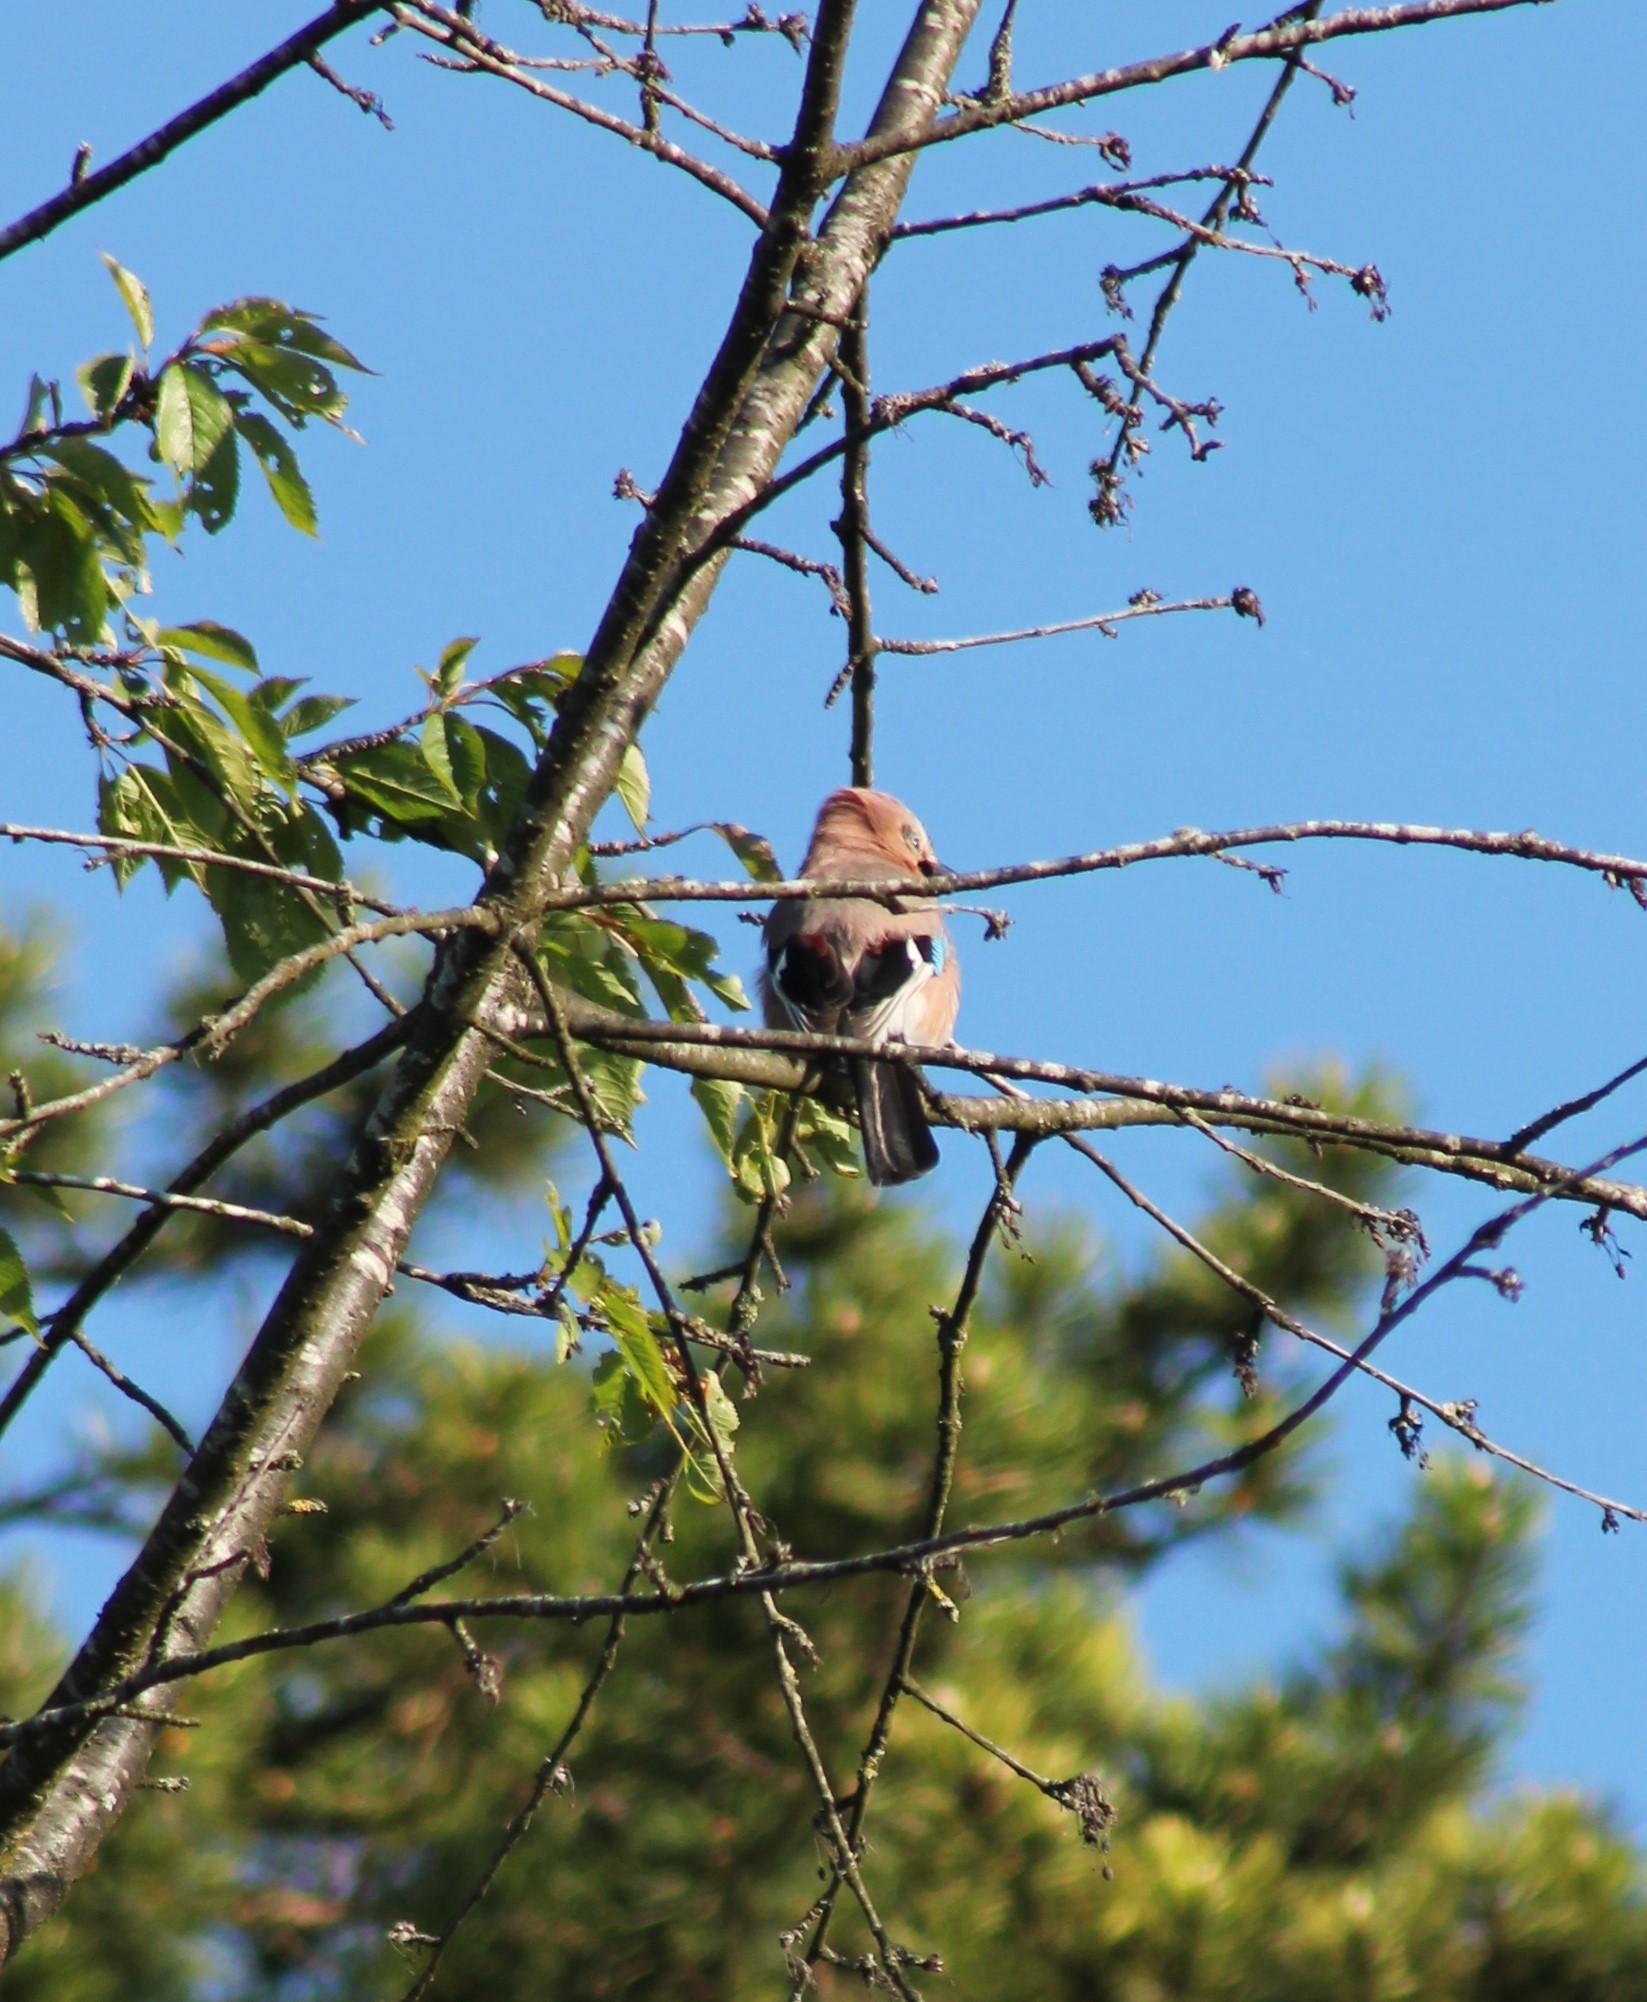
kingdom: Animalia
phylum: Chordata
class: Aves
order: Passeriformes
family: Corvidae
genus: Garrulus
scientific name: Garrulus glandarius
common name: Eurasian jay
